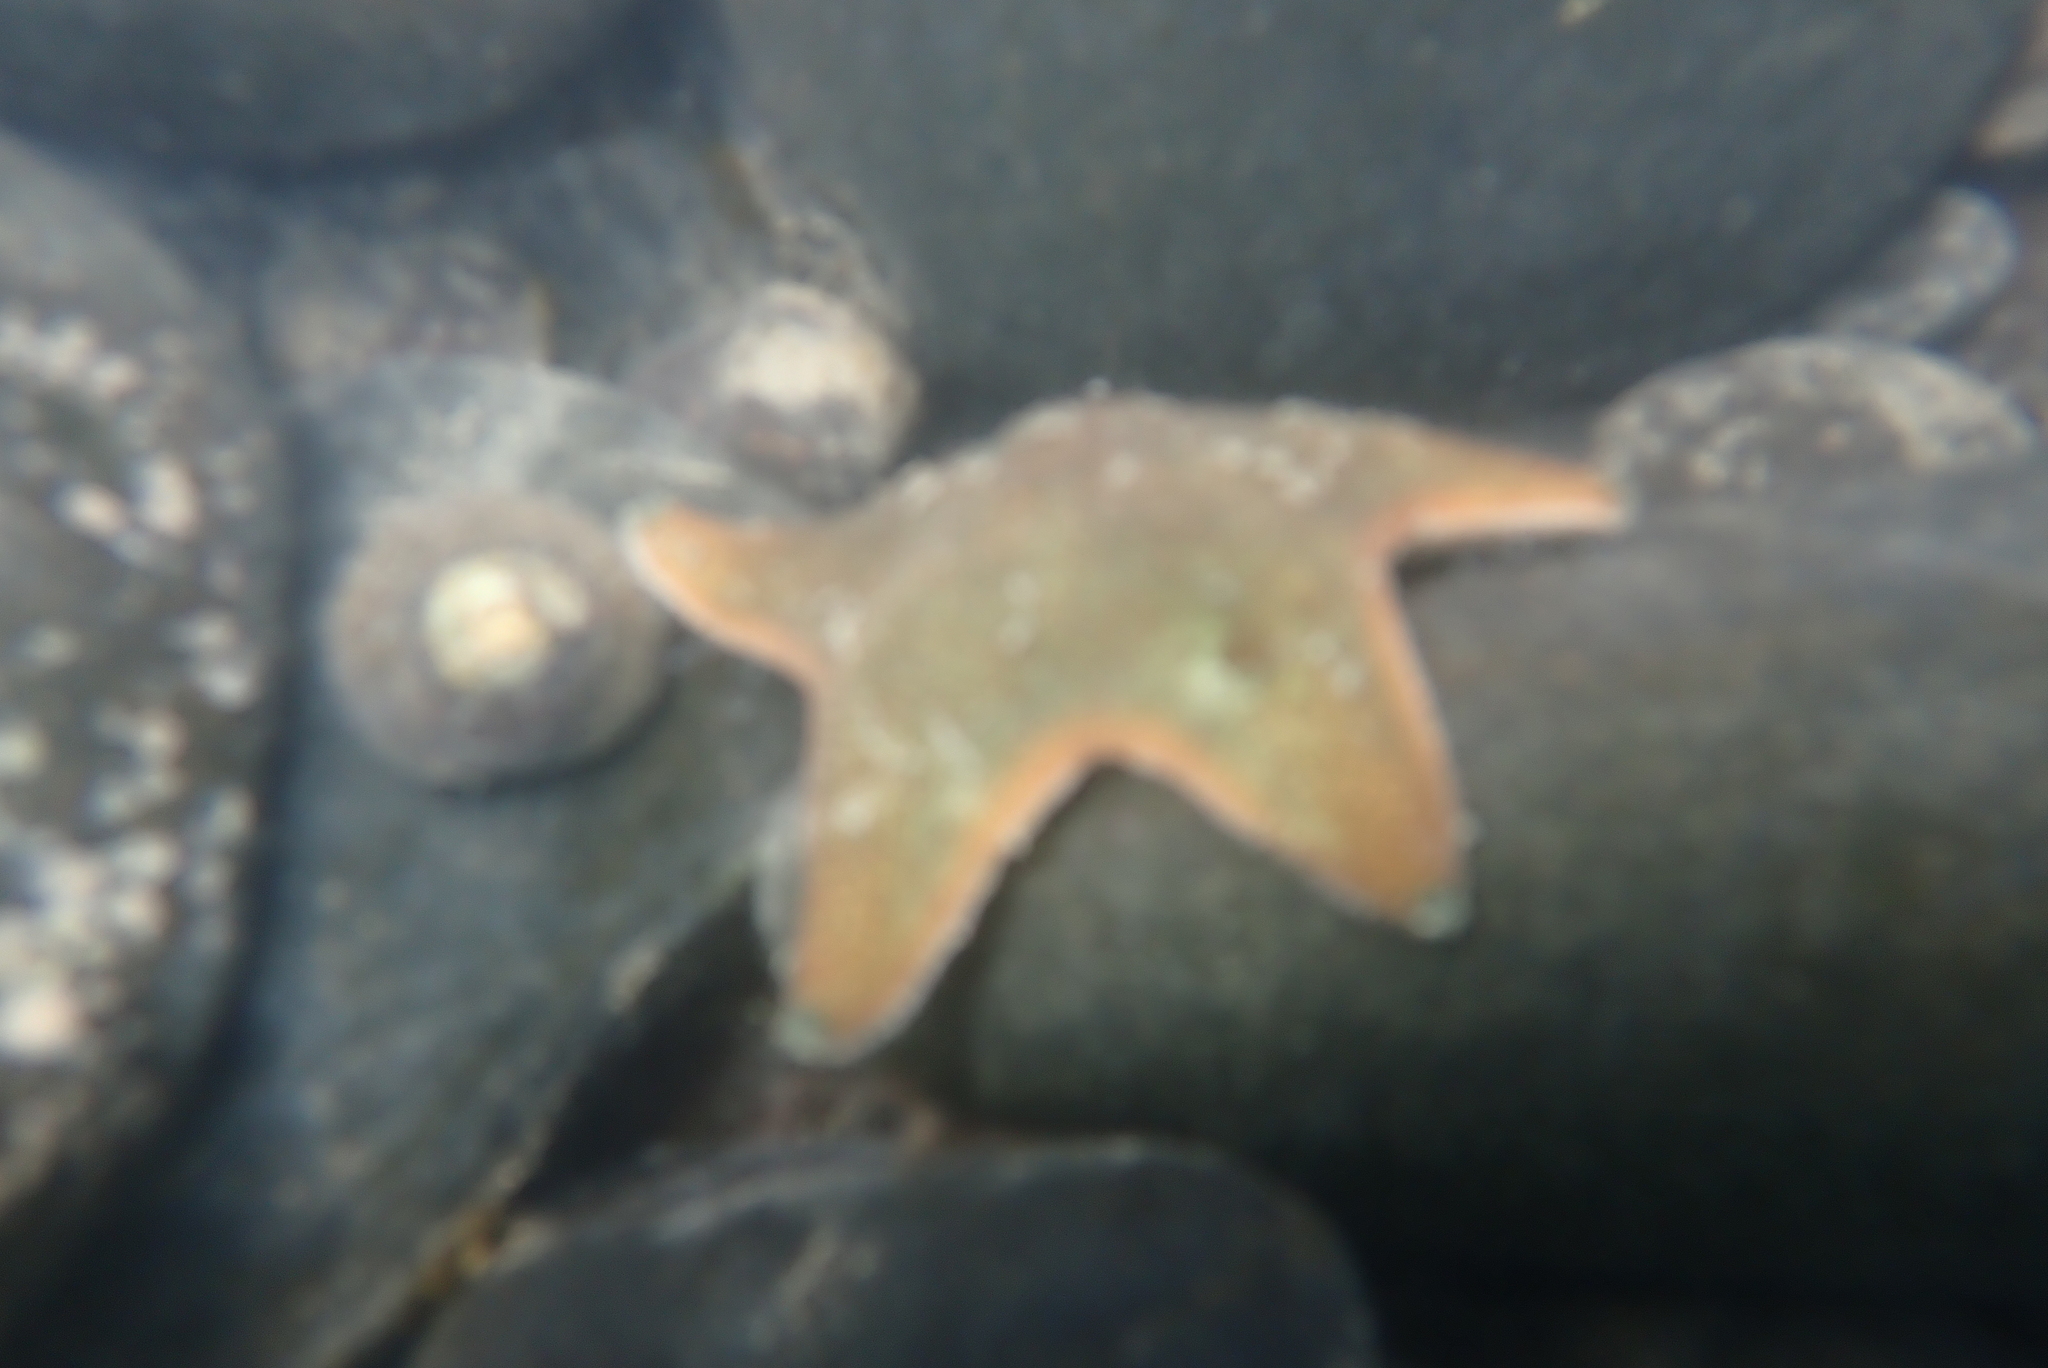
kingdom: Animalia
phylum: Echinodermata
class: Asteroidea
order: Valvatida
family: Asterinidae
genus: Patiriella
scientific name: Patiriella regularis
